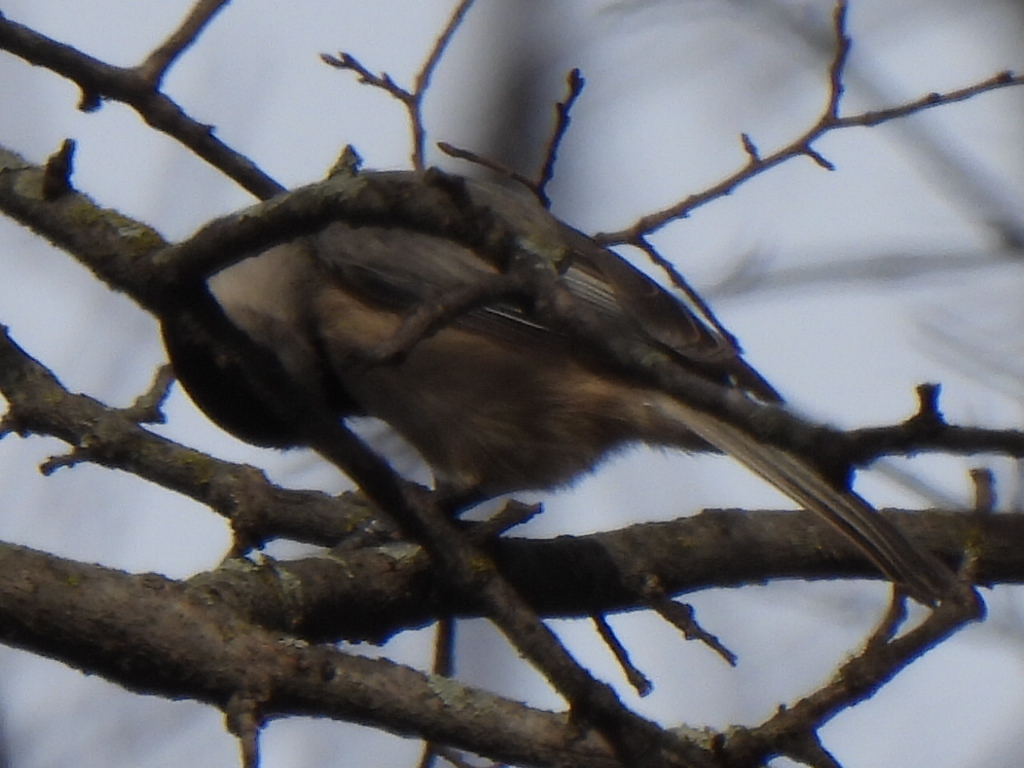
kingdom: Animalia
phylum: Chordata
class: Aves
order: Passeriformes
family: Paridae
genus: Poecile
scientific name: Poecile carolinensis
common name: Carolina chickadee
